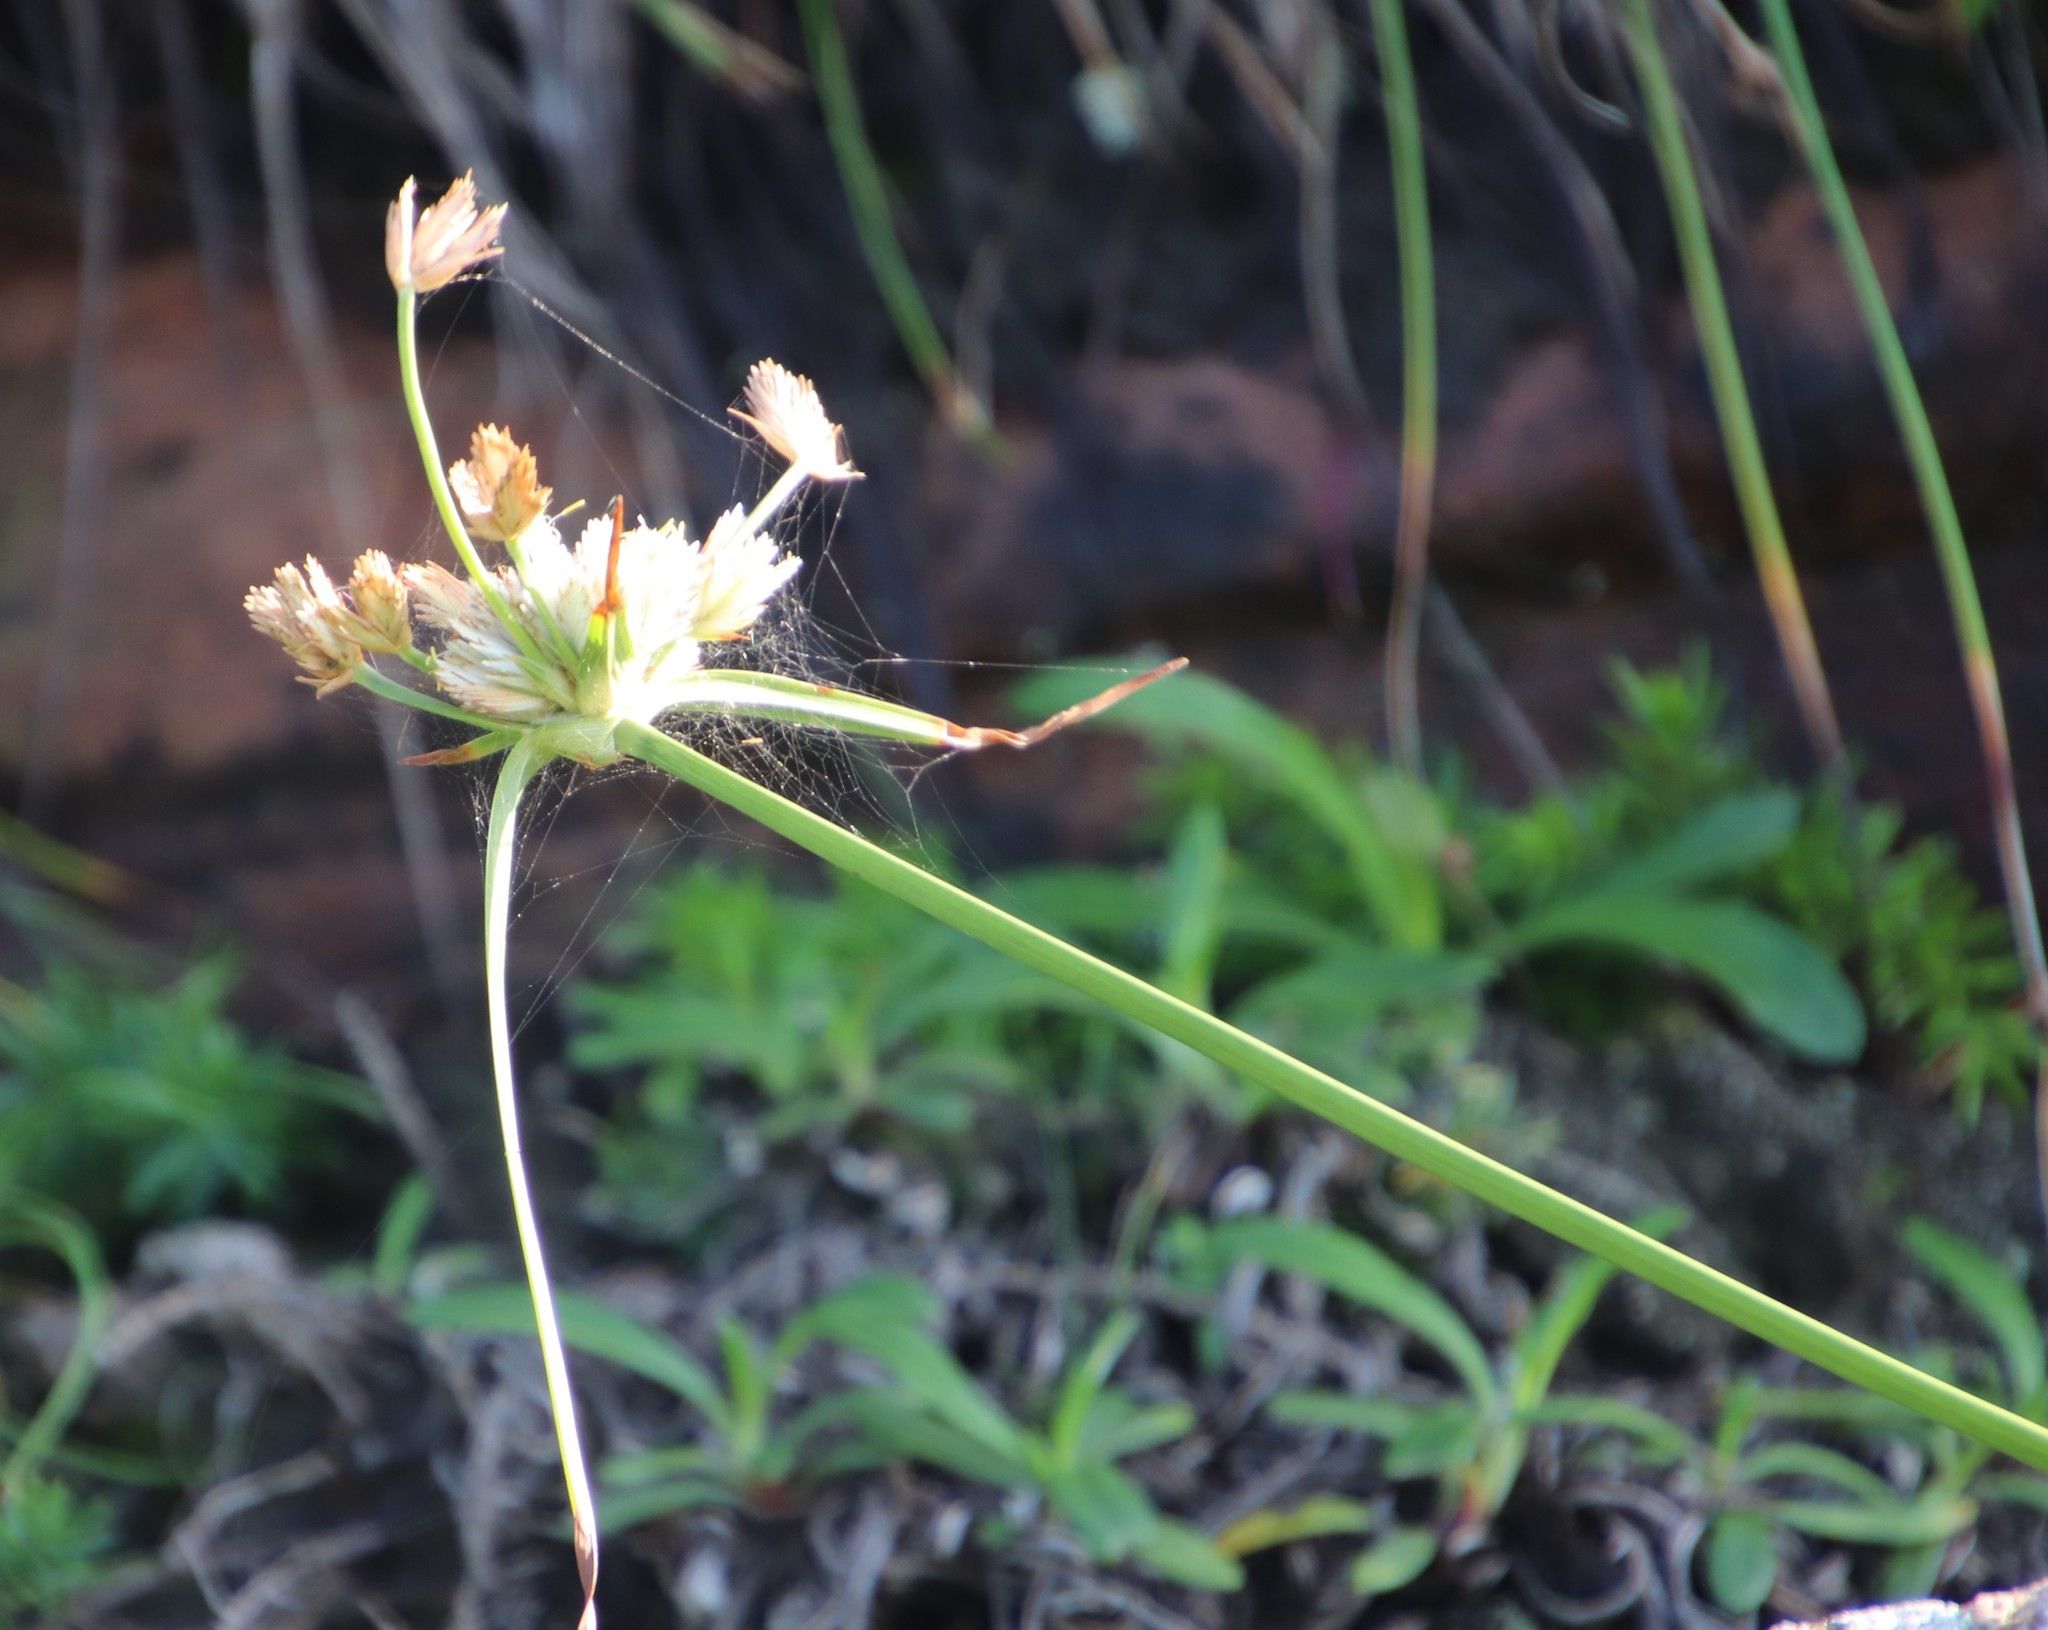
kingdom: Plantae
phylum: Tracheophyta
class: Liliopsida
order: Poales
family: Cyperaceae
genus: Cyperus
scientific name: Cyperus niveus
